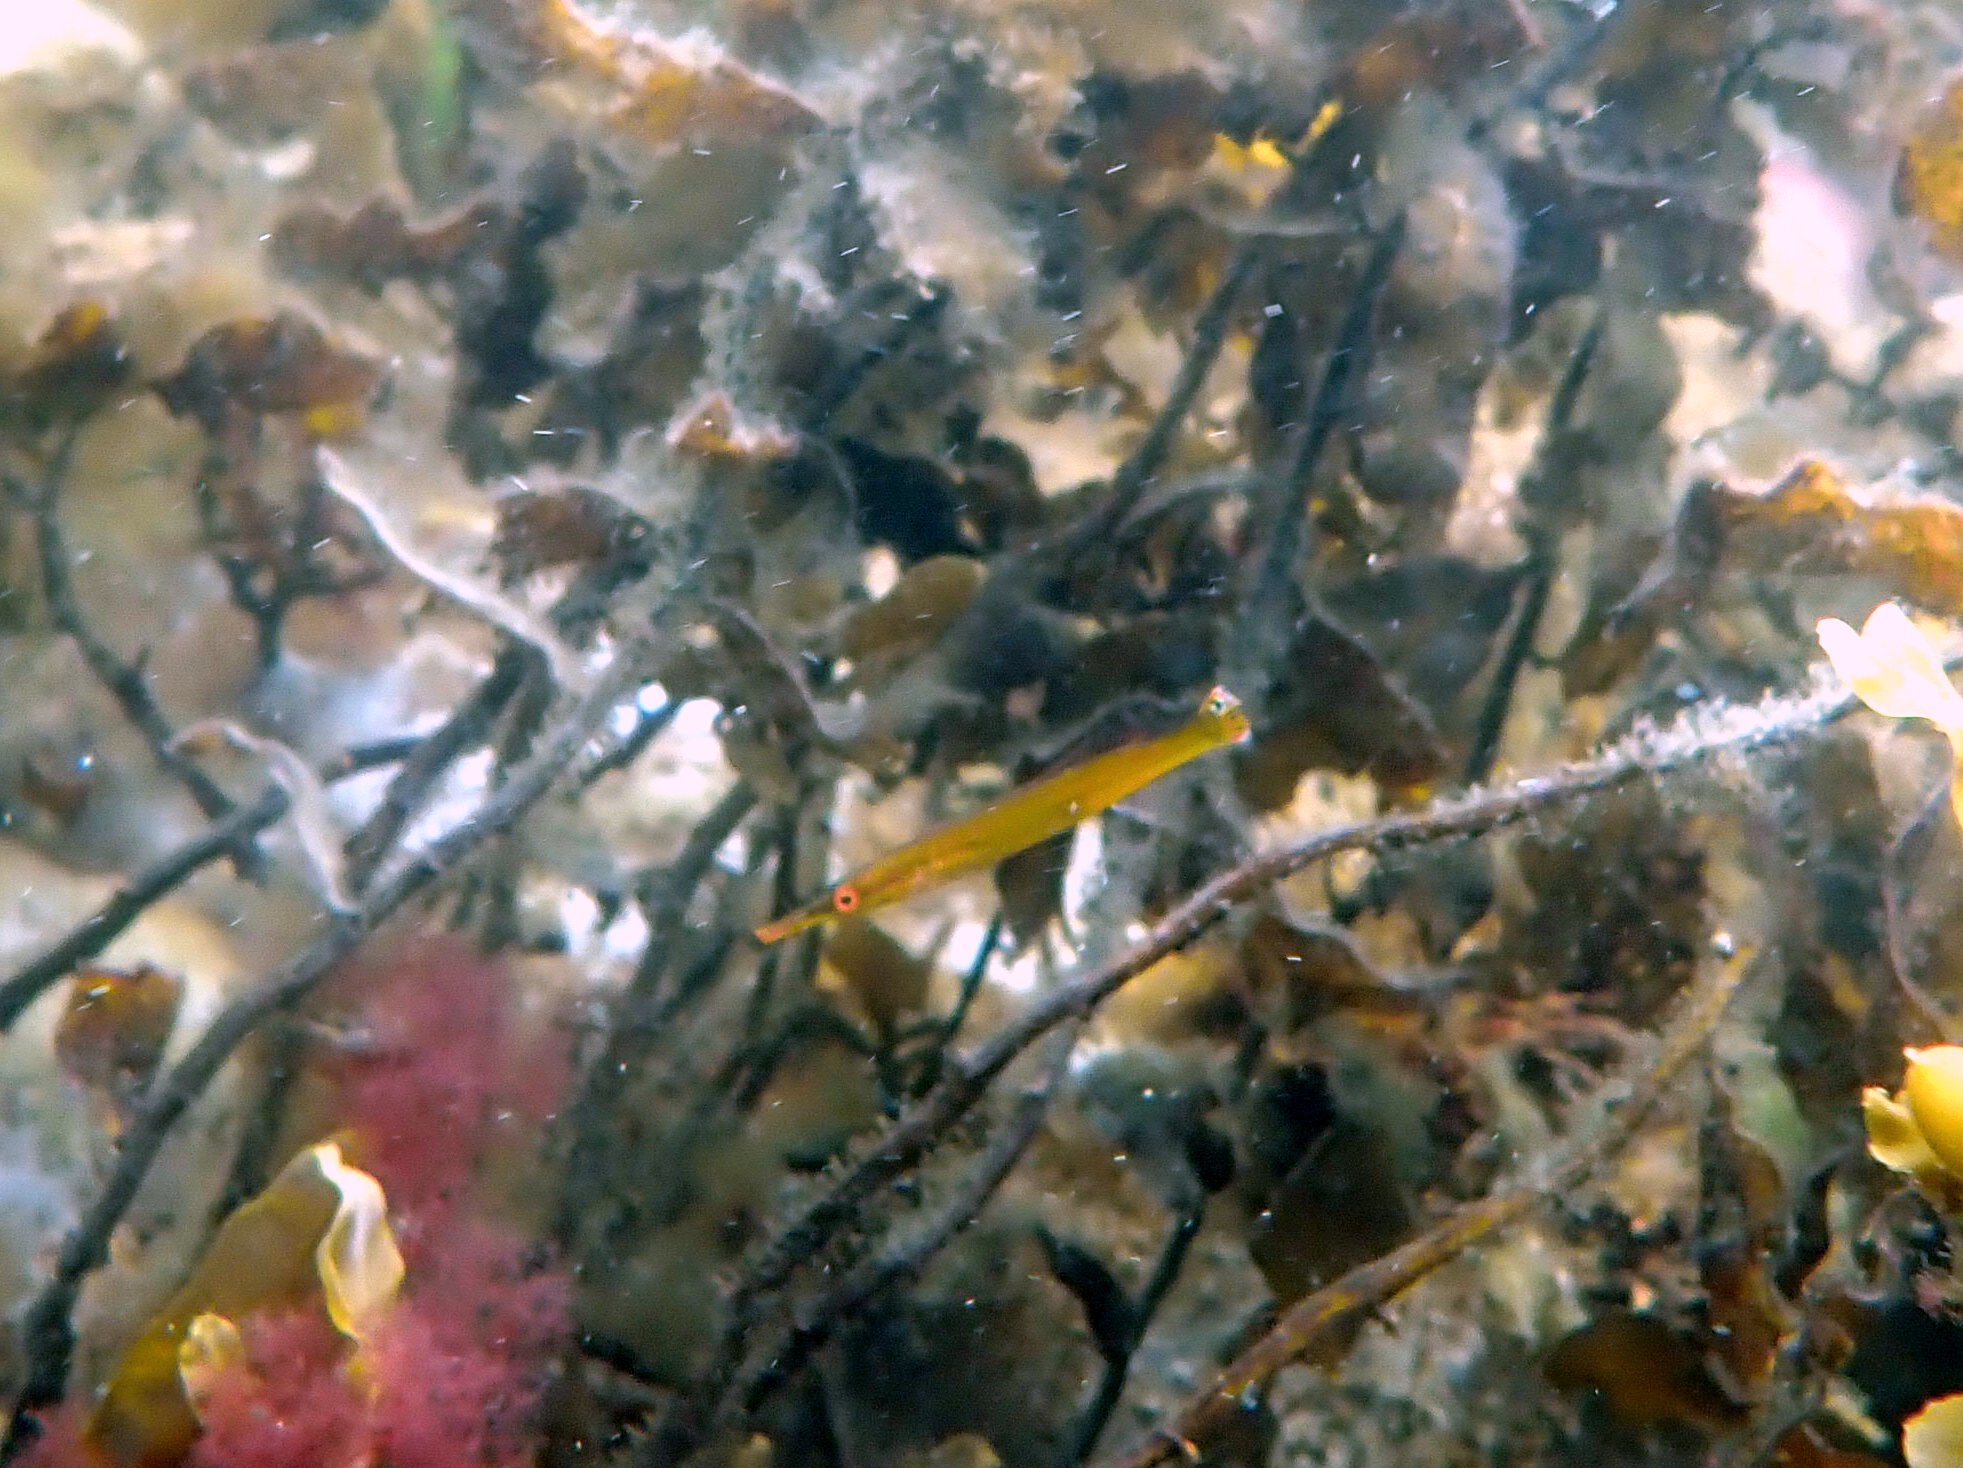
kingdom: Animalia
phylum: Chordata
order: Perciformes
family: Odacidae
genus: Siphonognathus
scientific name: Siphonognathus
